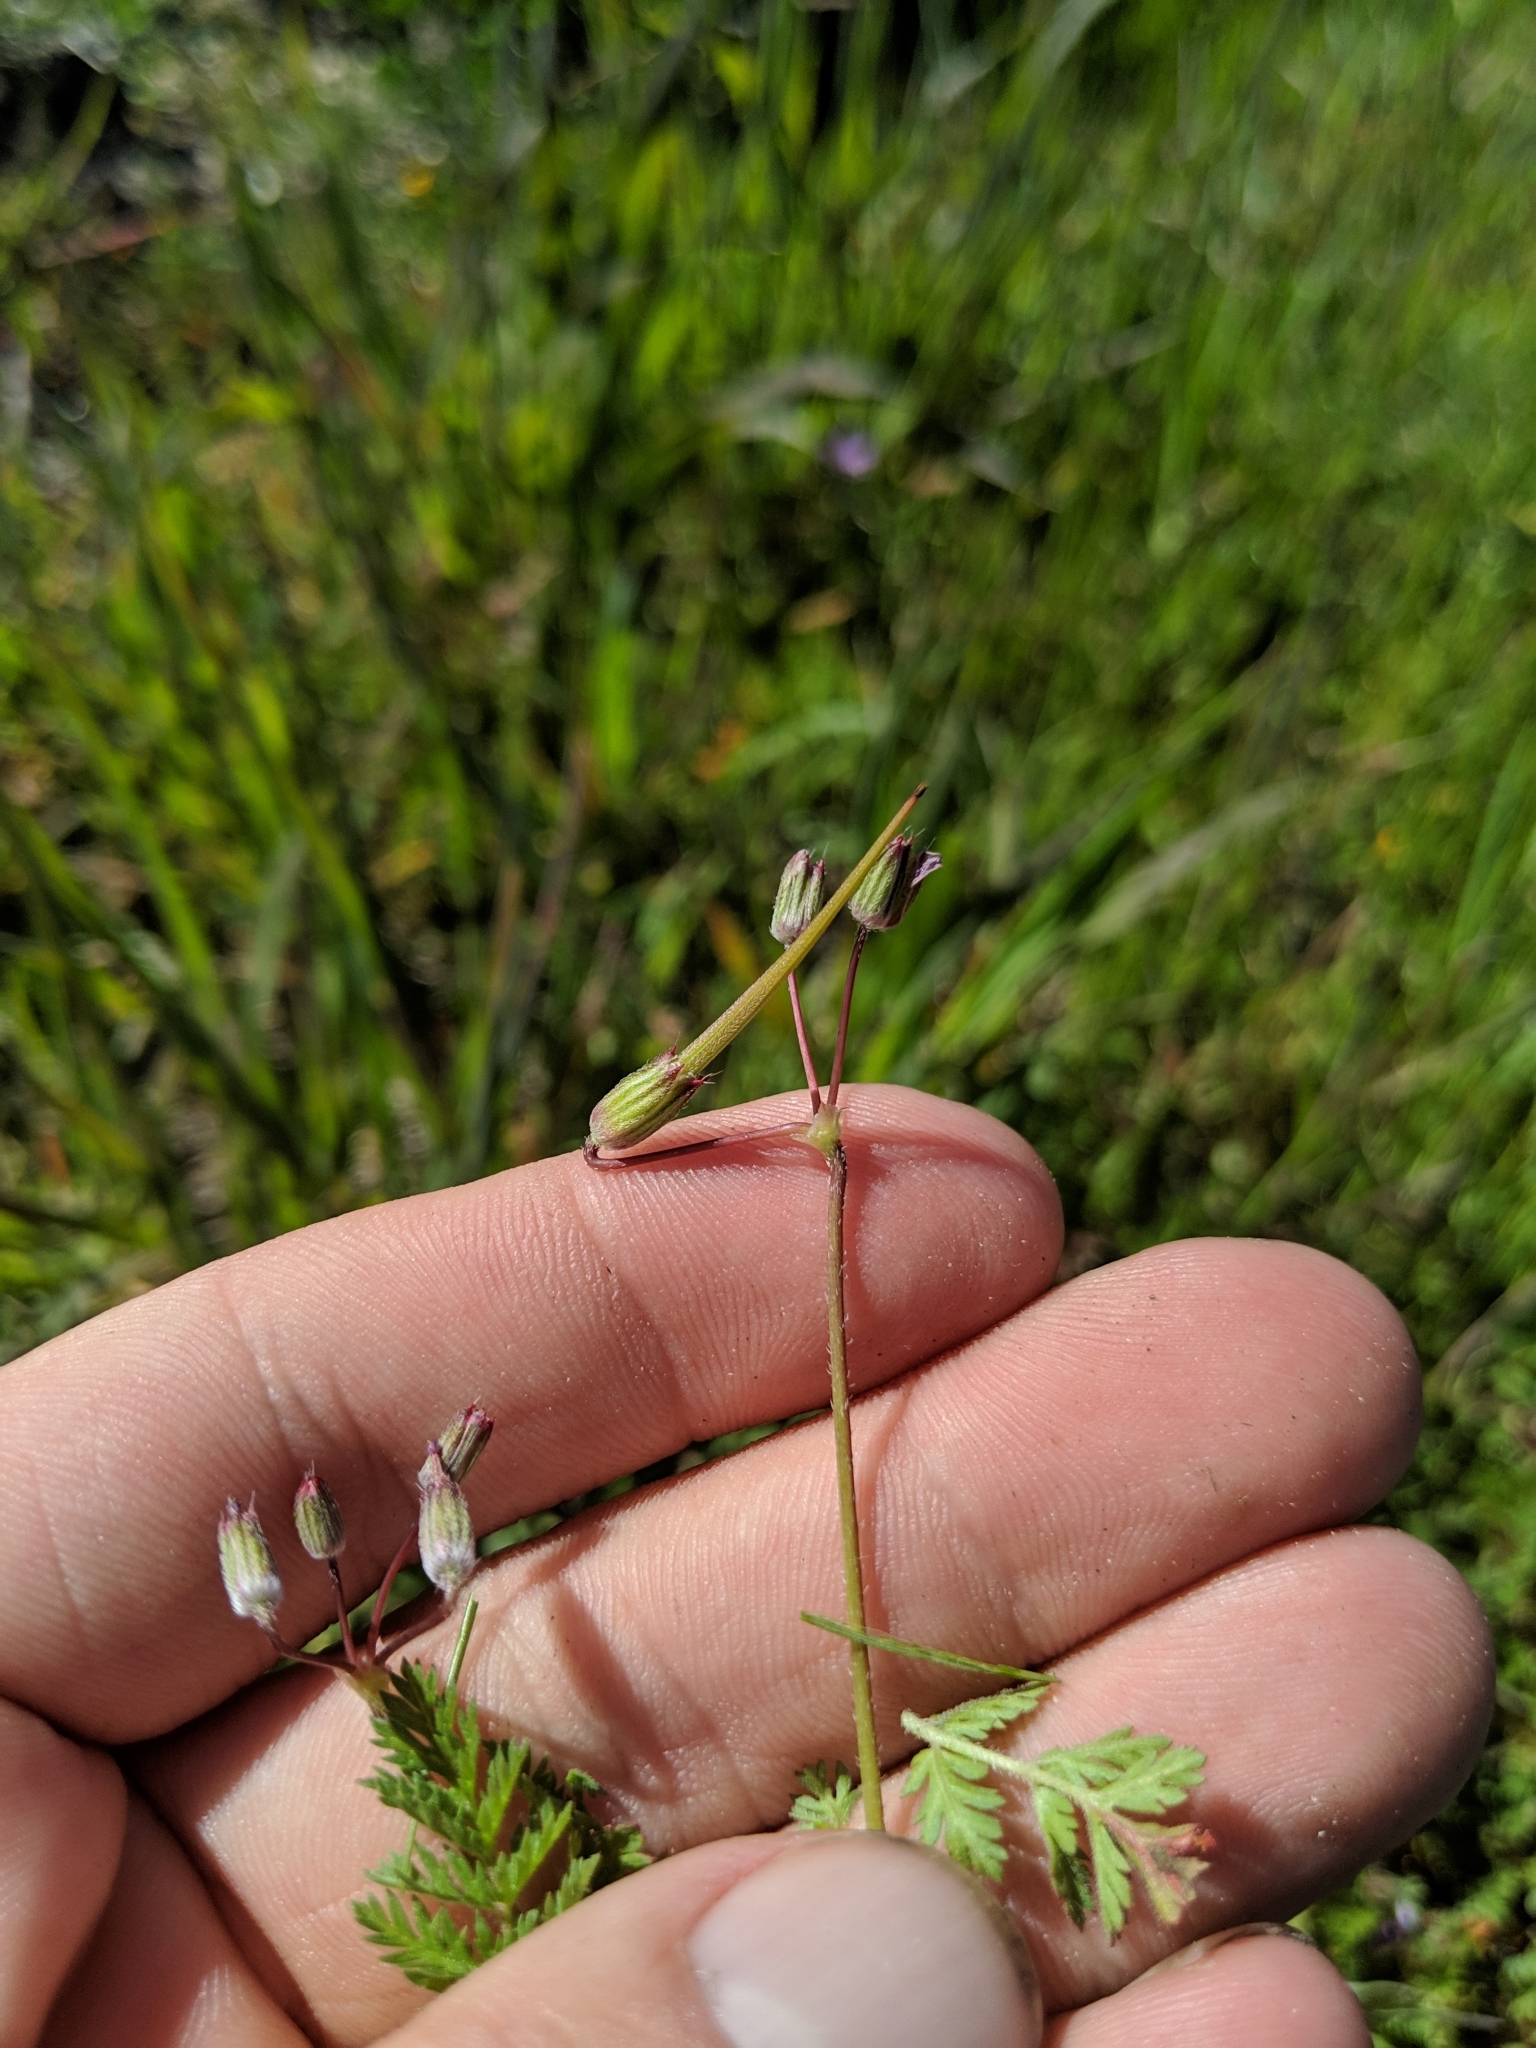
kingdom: Plantae
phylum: Tracheophyta
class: Magnoliopsida
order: Geraniales
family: Geraniaceae
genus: Erodium
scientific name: Erodium cicutarium
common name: Common stork's-bill
